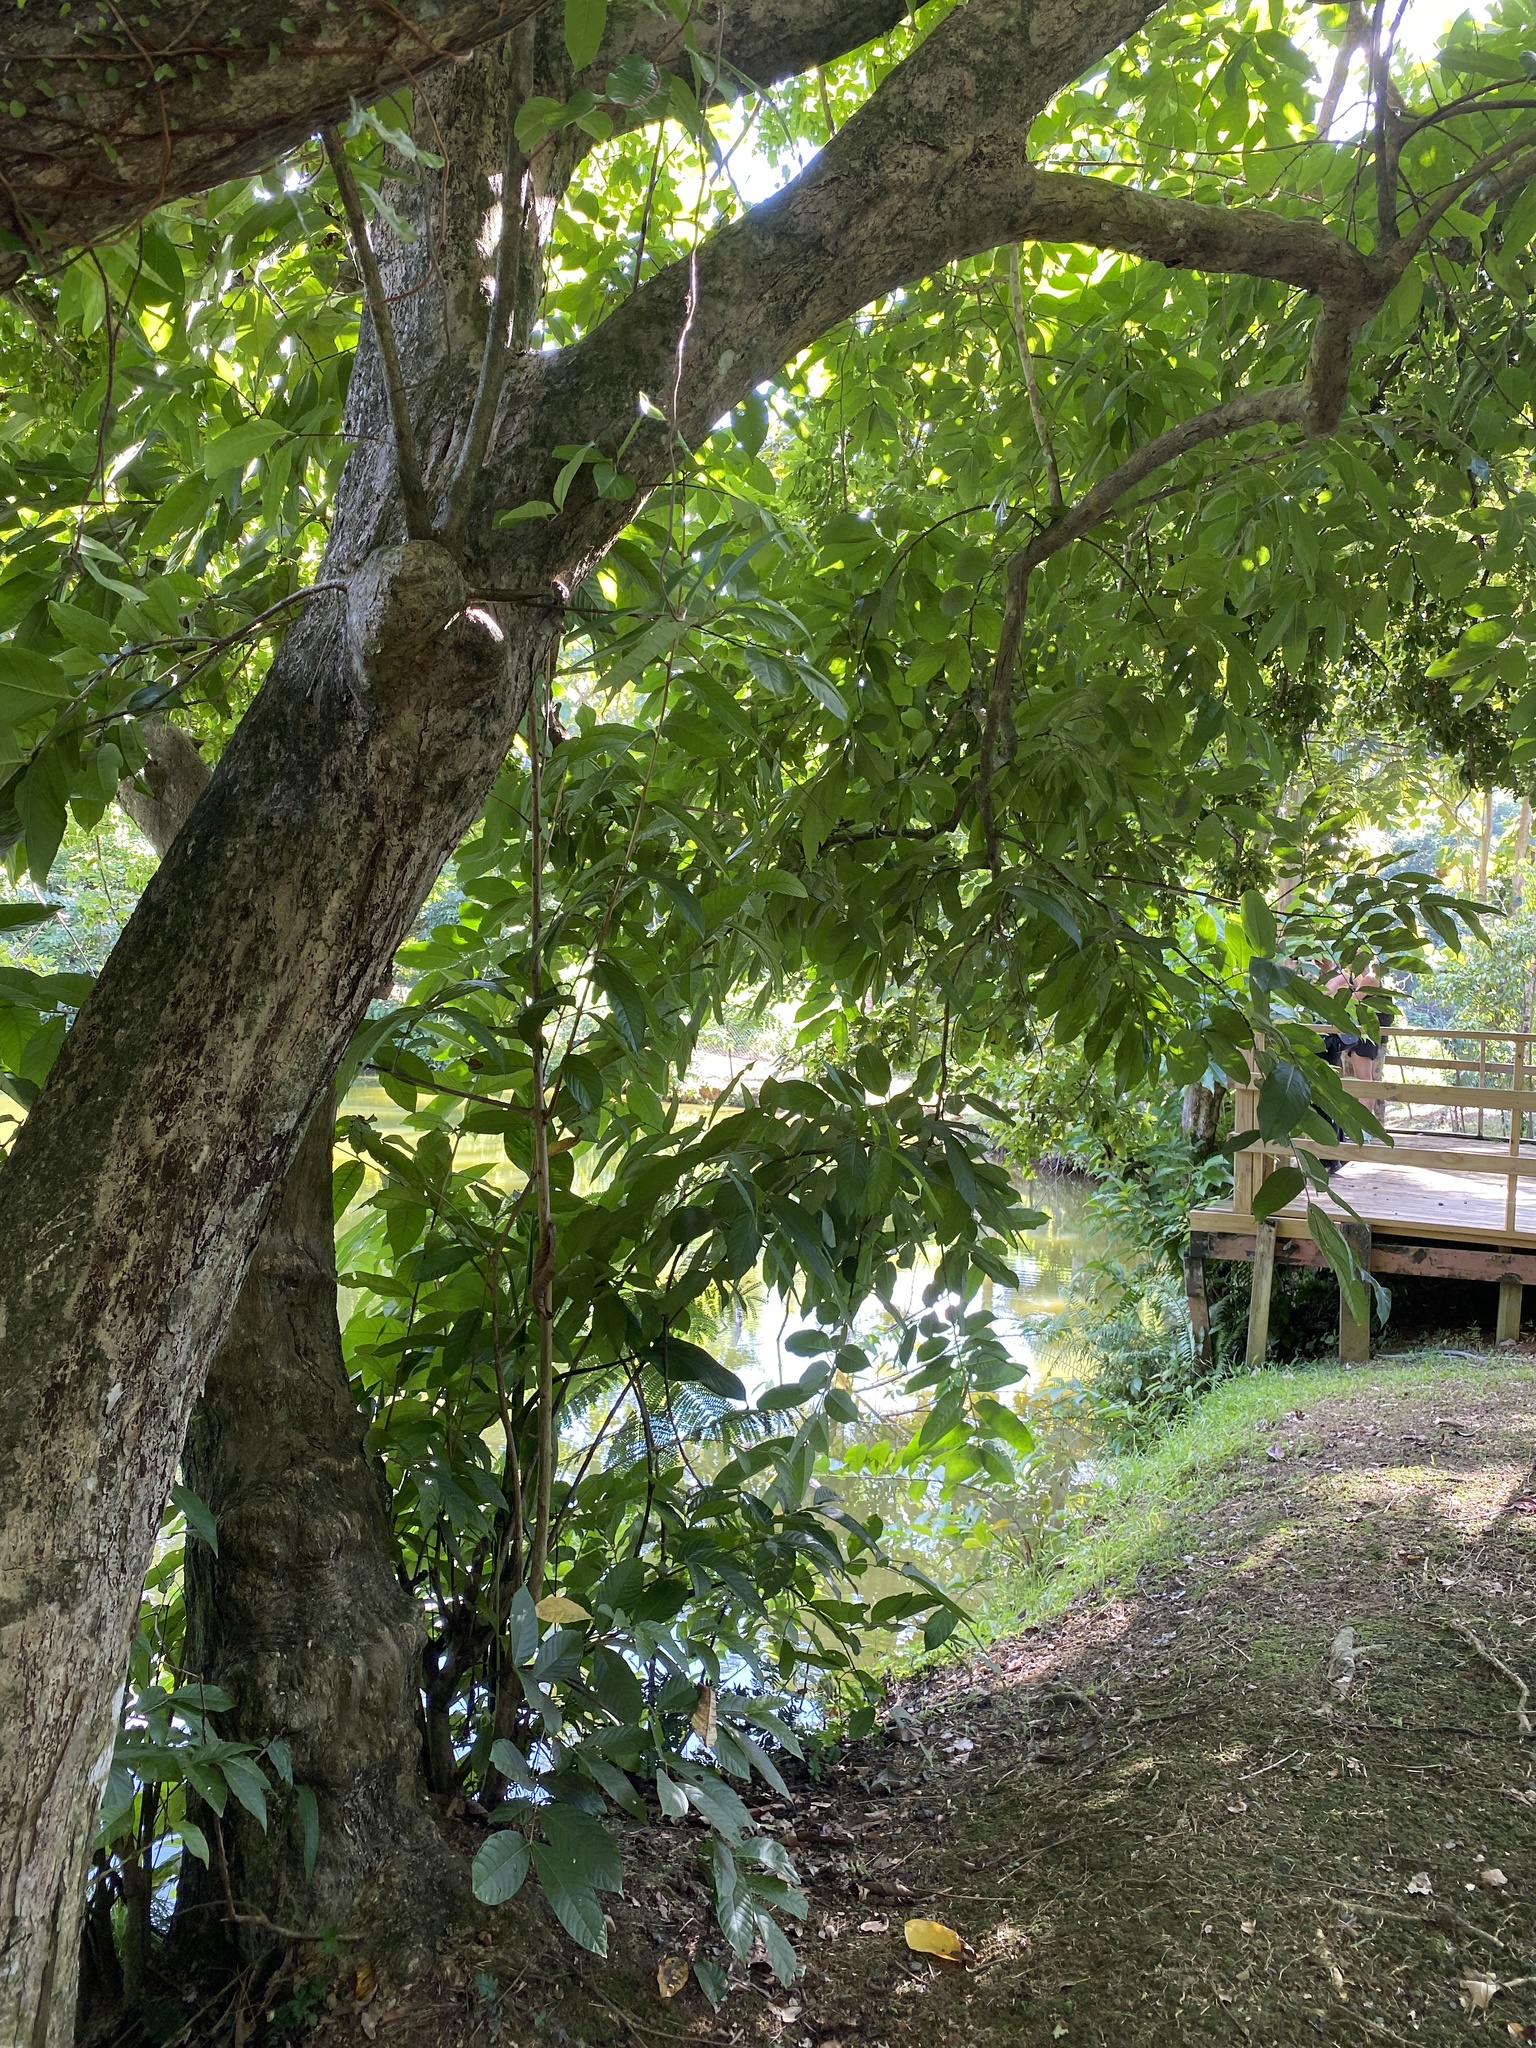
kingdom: Plantae
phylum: Tracheophyta
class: Magnoliopsida
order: Myrtales
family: Lythraceae
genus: Lagerstroemia
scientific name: Lagerstroemia speciosa
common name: Queen's crape-myrtle
